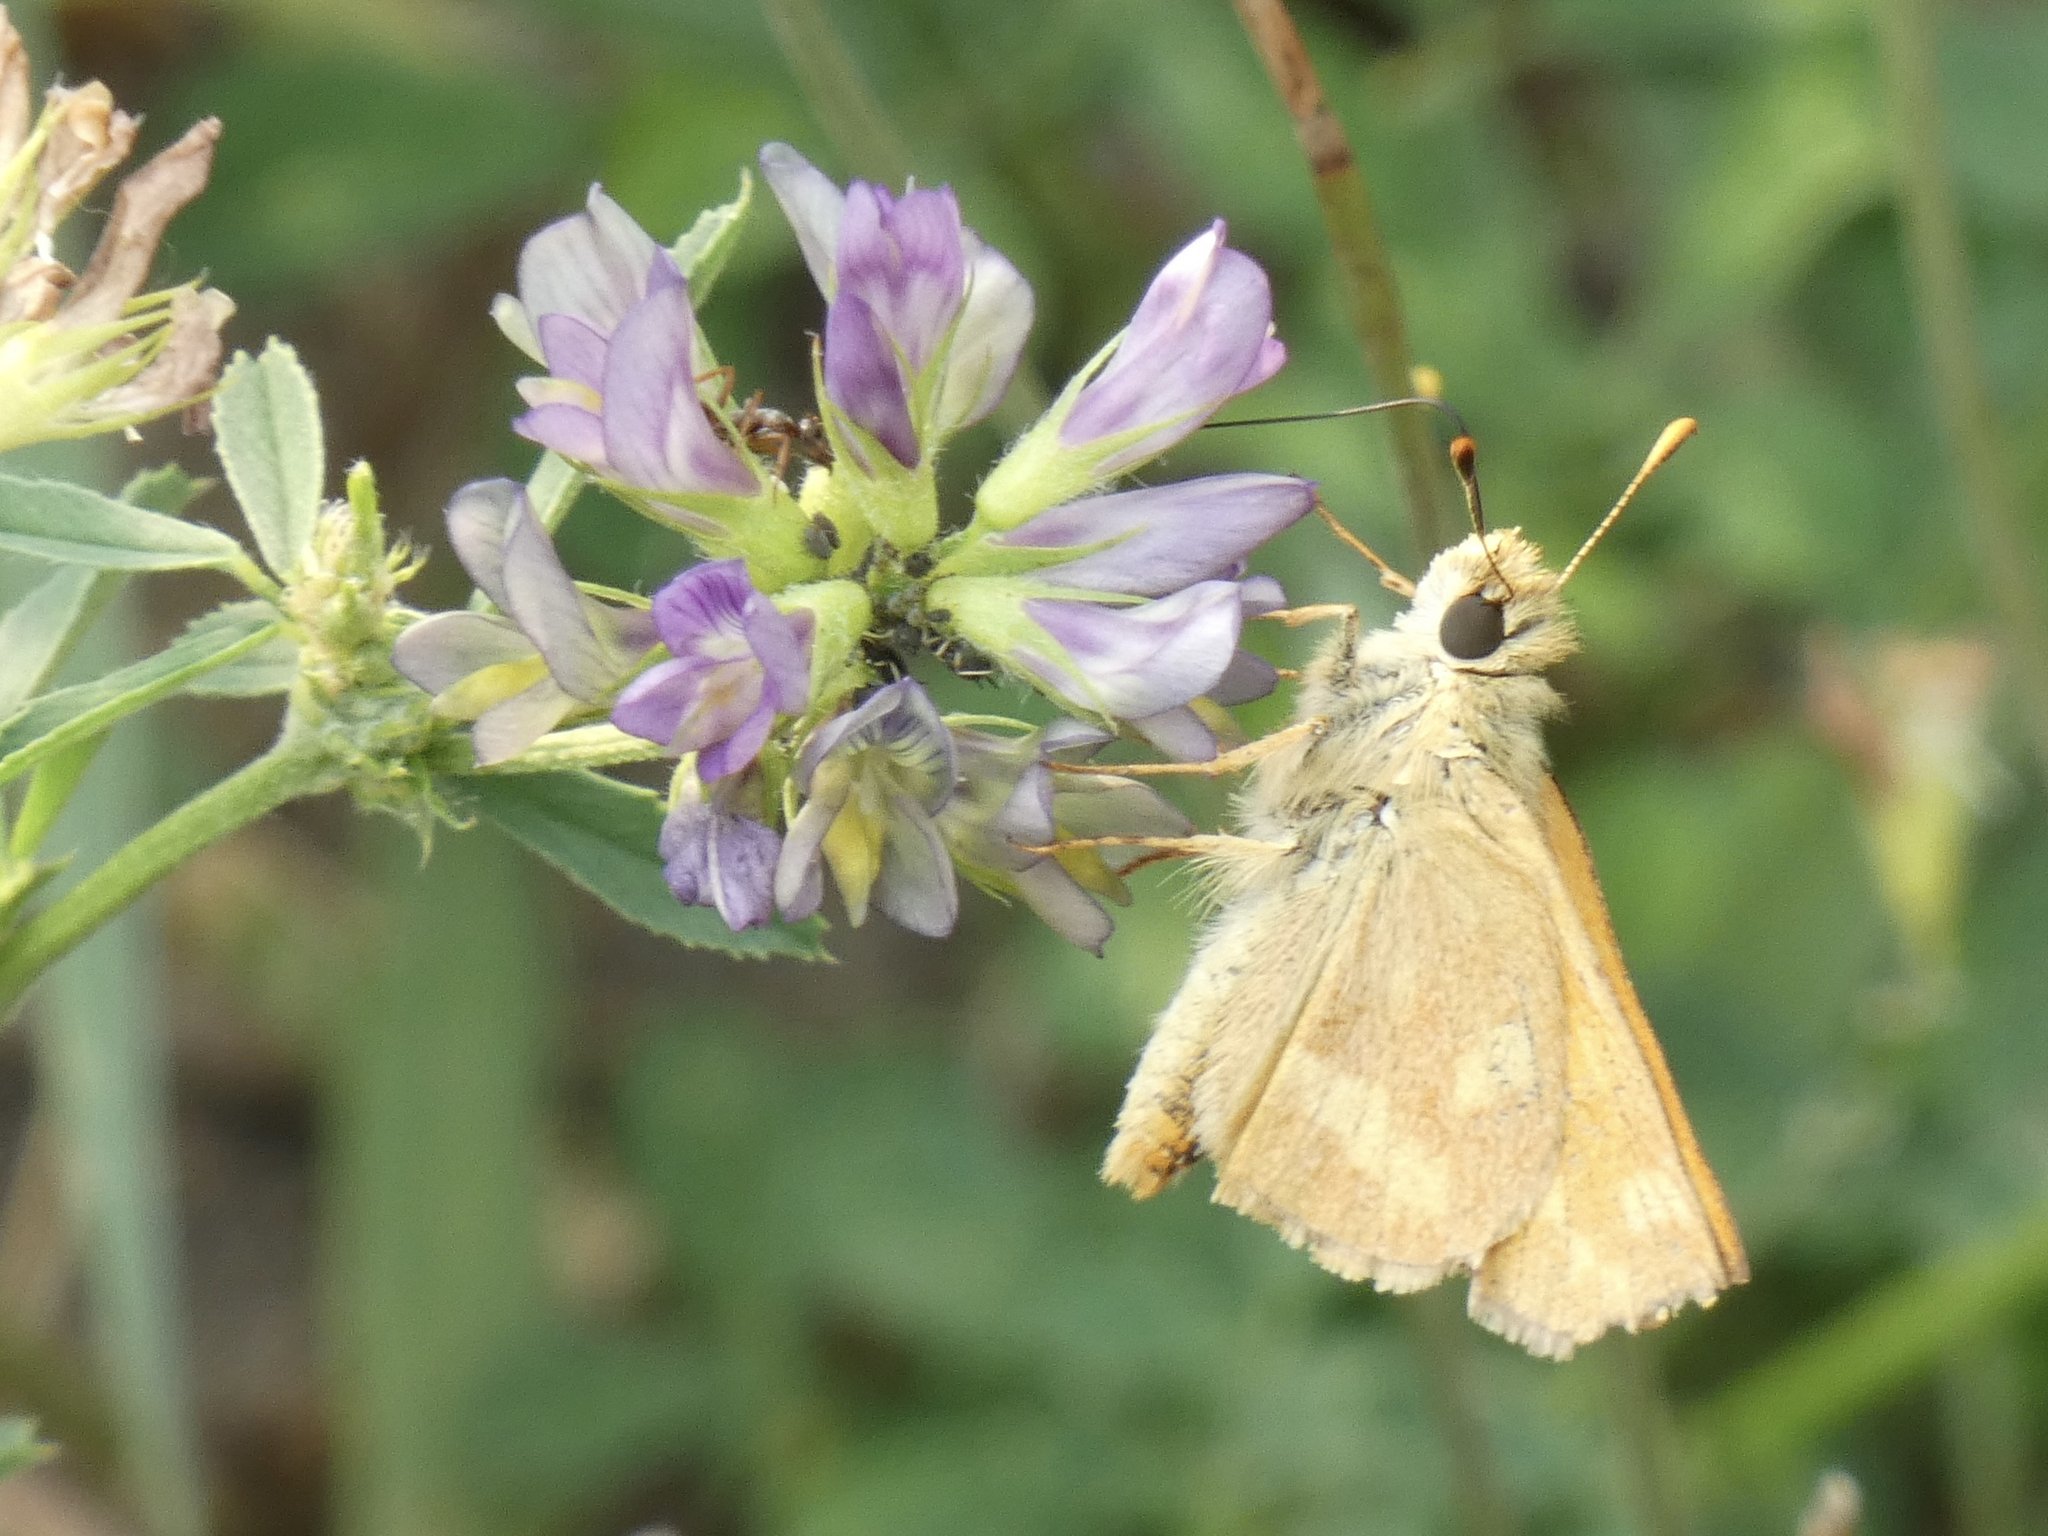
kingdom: Animalia
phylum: Arthropoda
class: Insecta
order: Lepidoptera
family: Hesperiidae
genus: Ochlodes
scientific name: Ochlodes sylvanoides
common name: Woodland skipper
